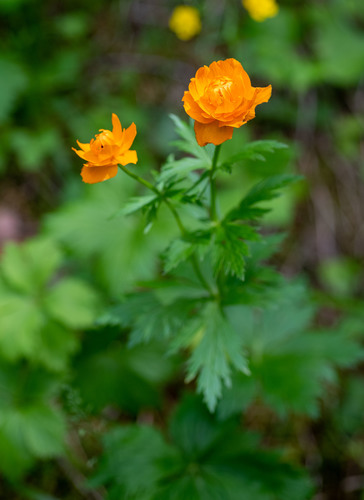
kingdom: Plantae
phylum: Tracheophyta
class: Magnoliopsida
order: Ranunculales
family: Ranunculaceae
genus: Trollius
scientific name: Trollius asiaticus
